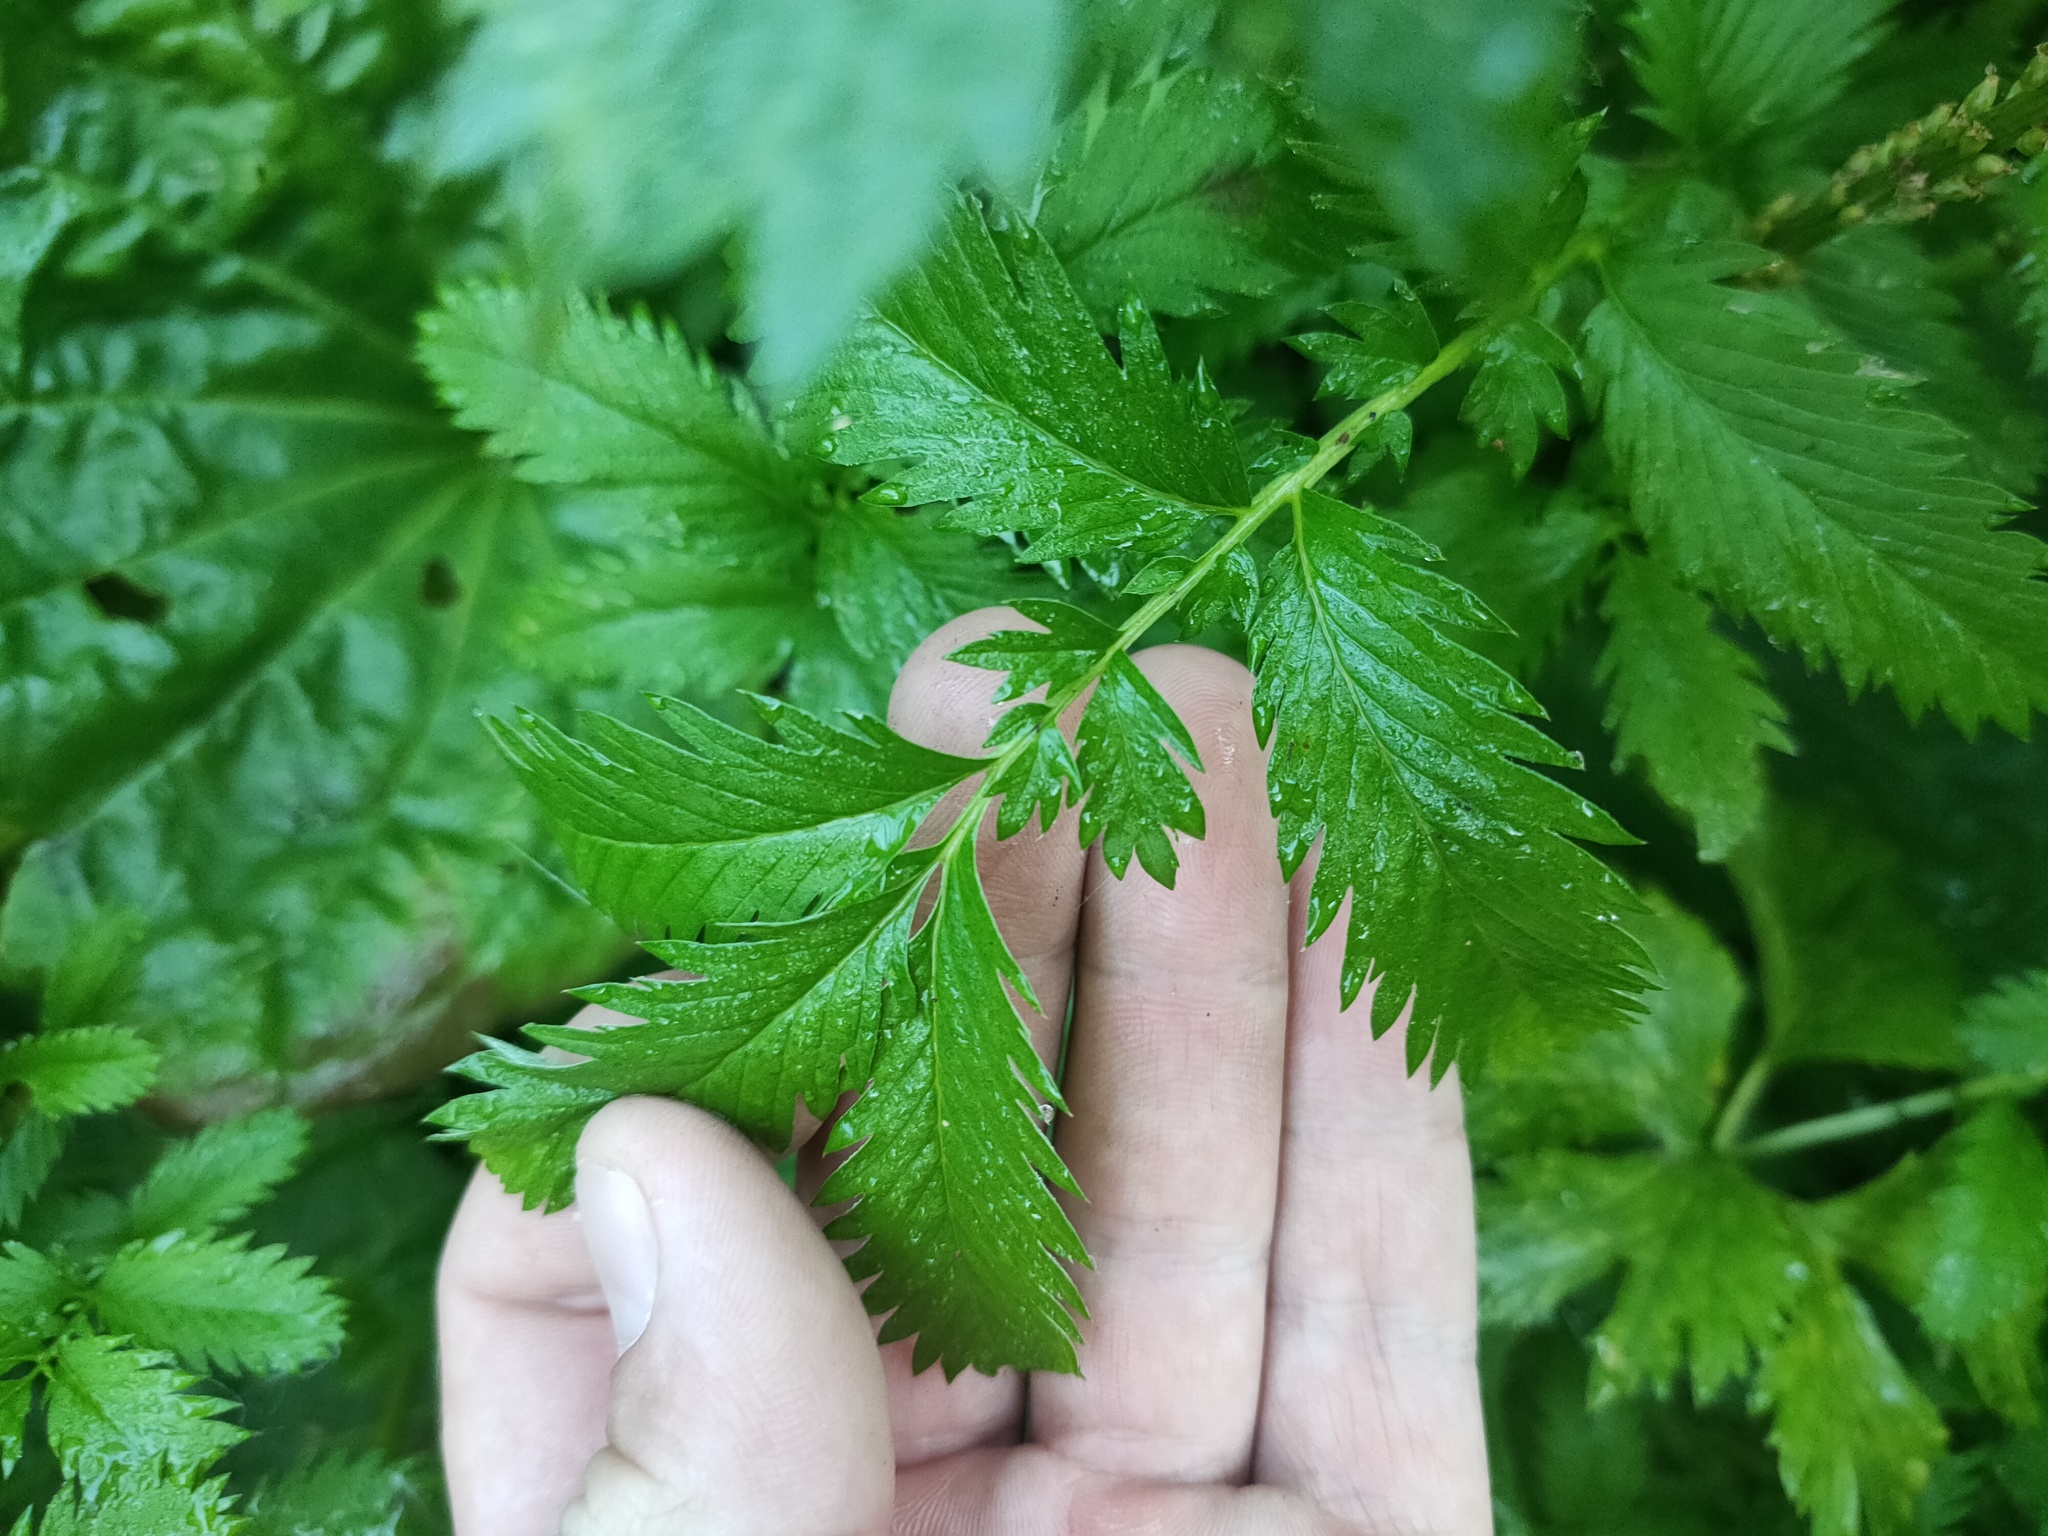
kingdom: Plantae
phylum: Tracheophyta
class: Magnoliopsida
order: Rosales
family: Rosaceae
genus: Argentina
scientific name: Argentina anserina
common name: Common silverweed
